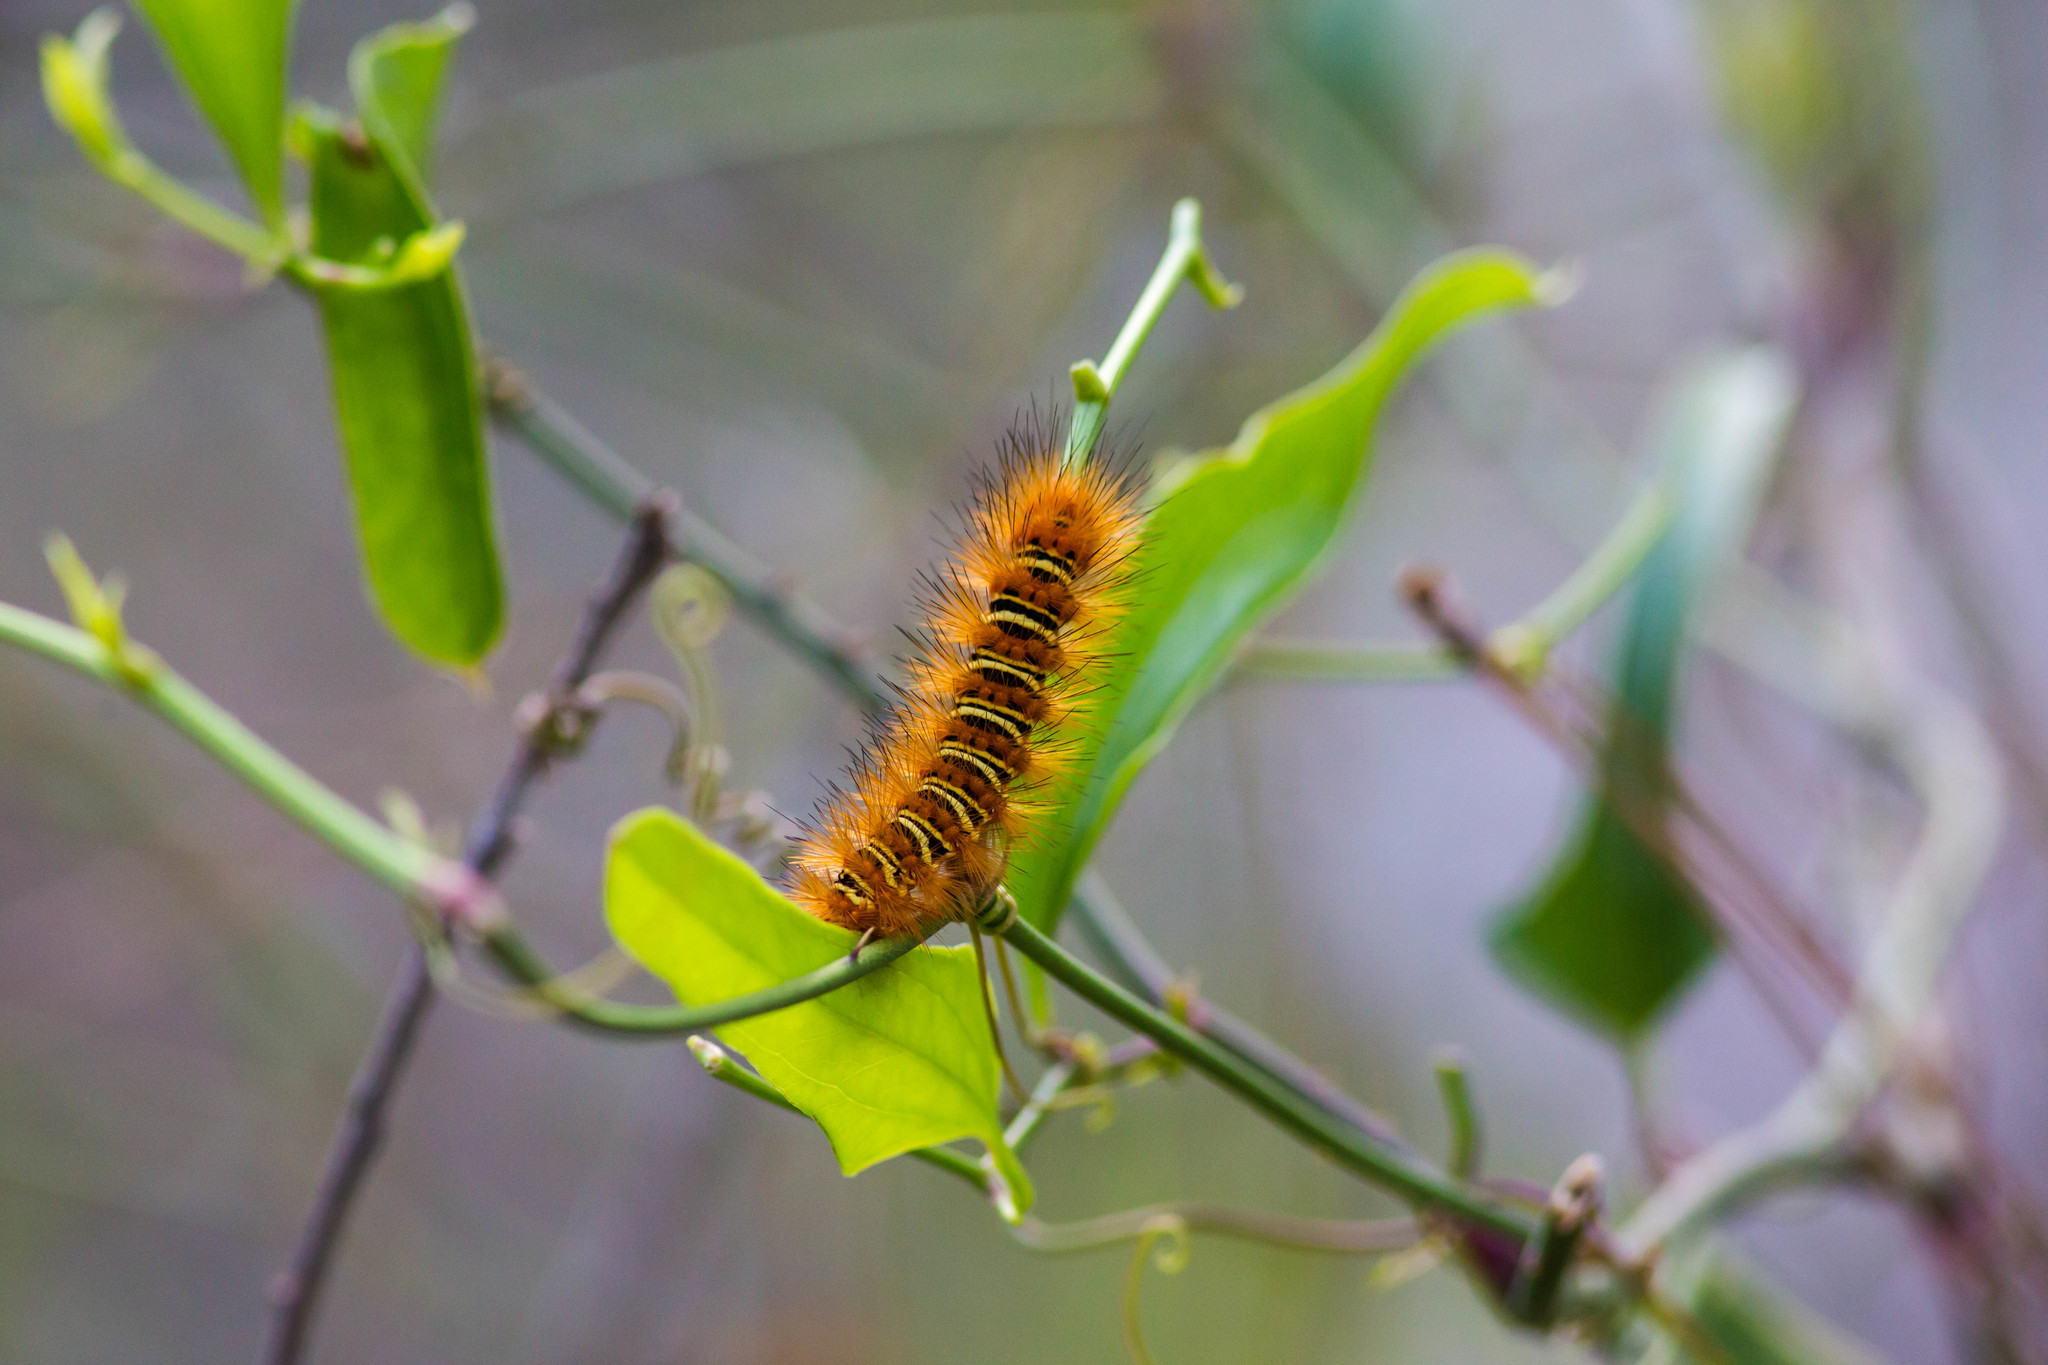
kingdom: Animalia
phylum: Arthropoda
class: Insecta
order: Lepidoptera
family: Erebidae
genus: Seirarctia
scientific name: Seirarctia echo
